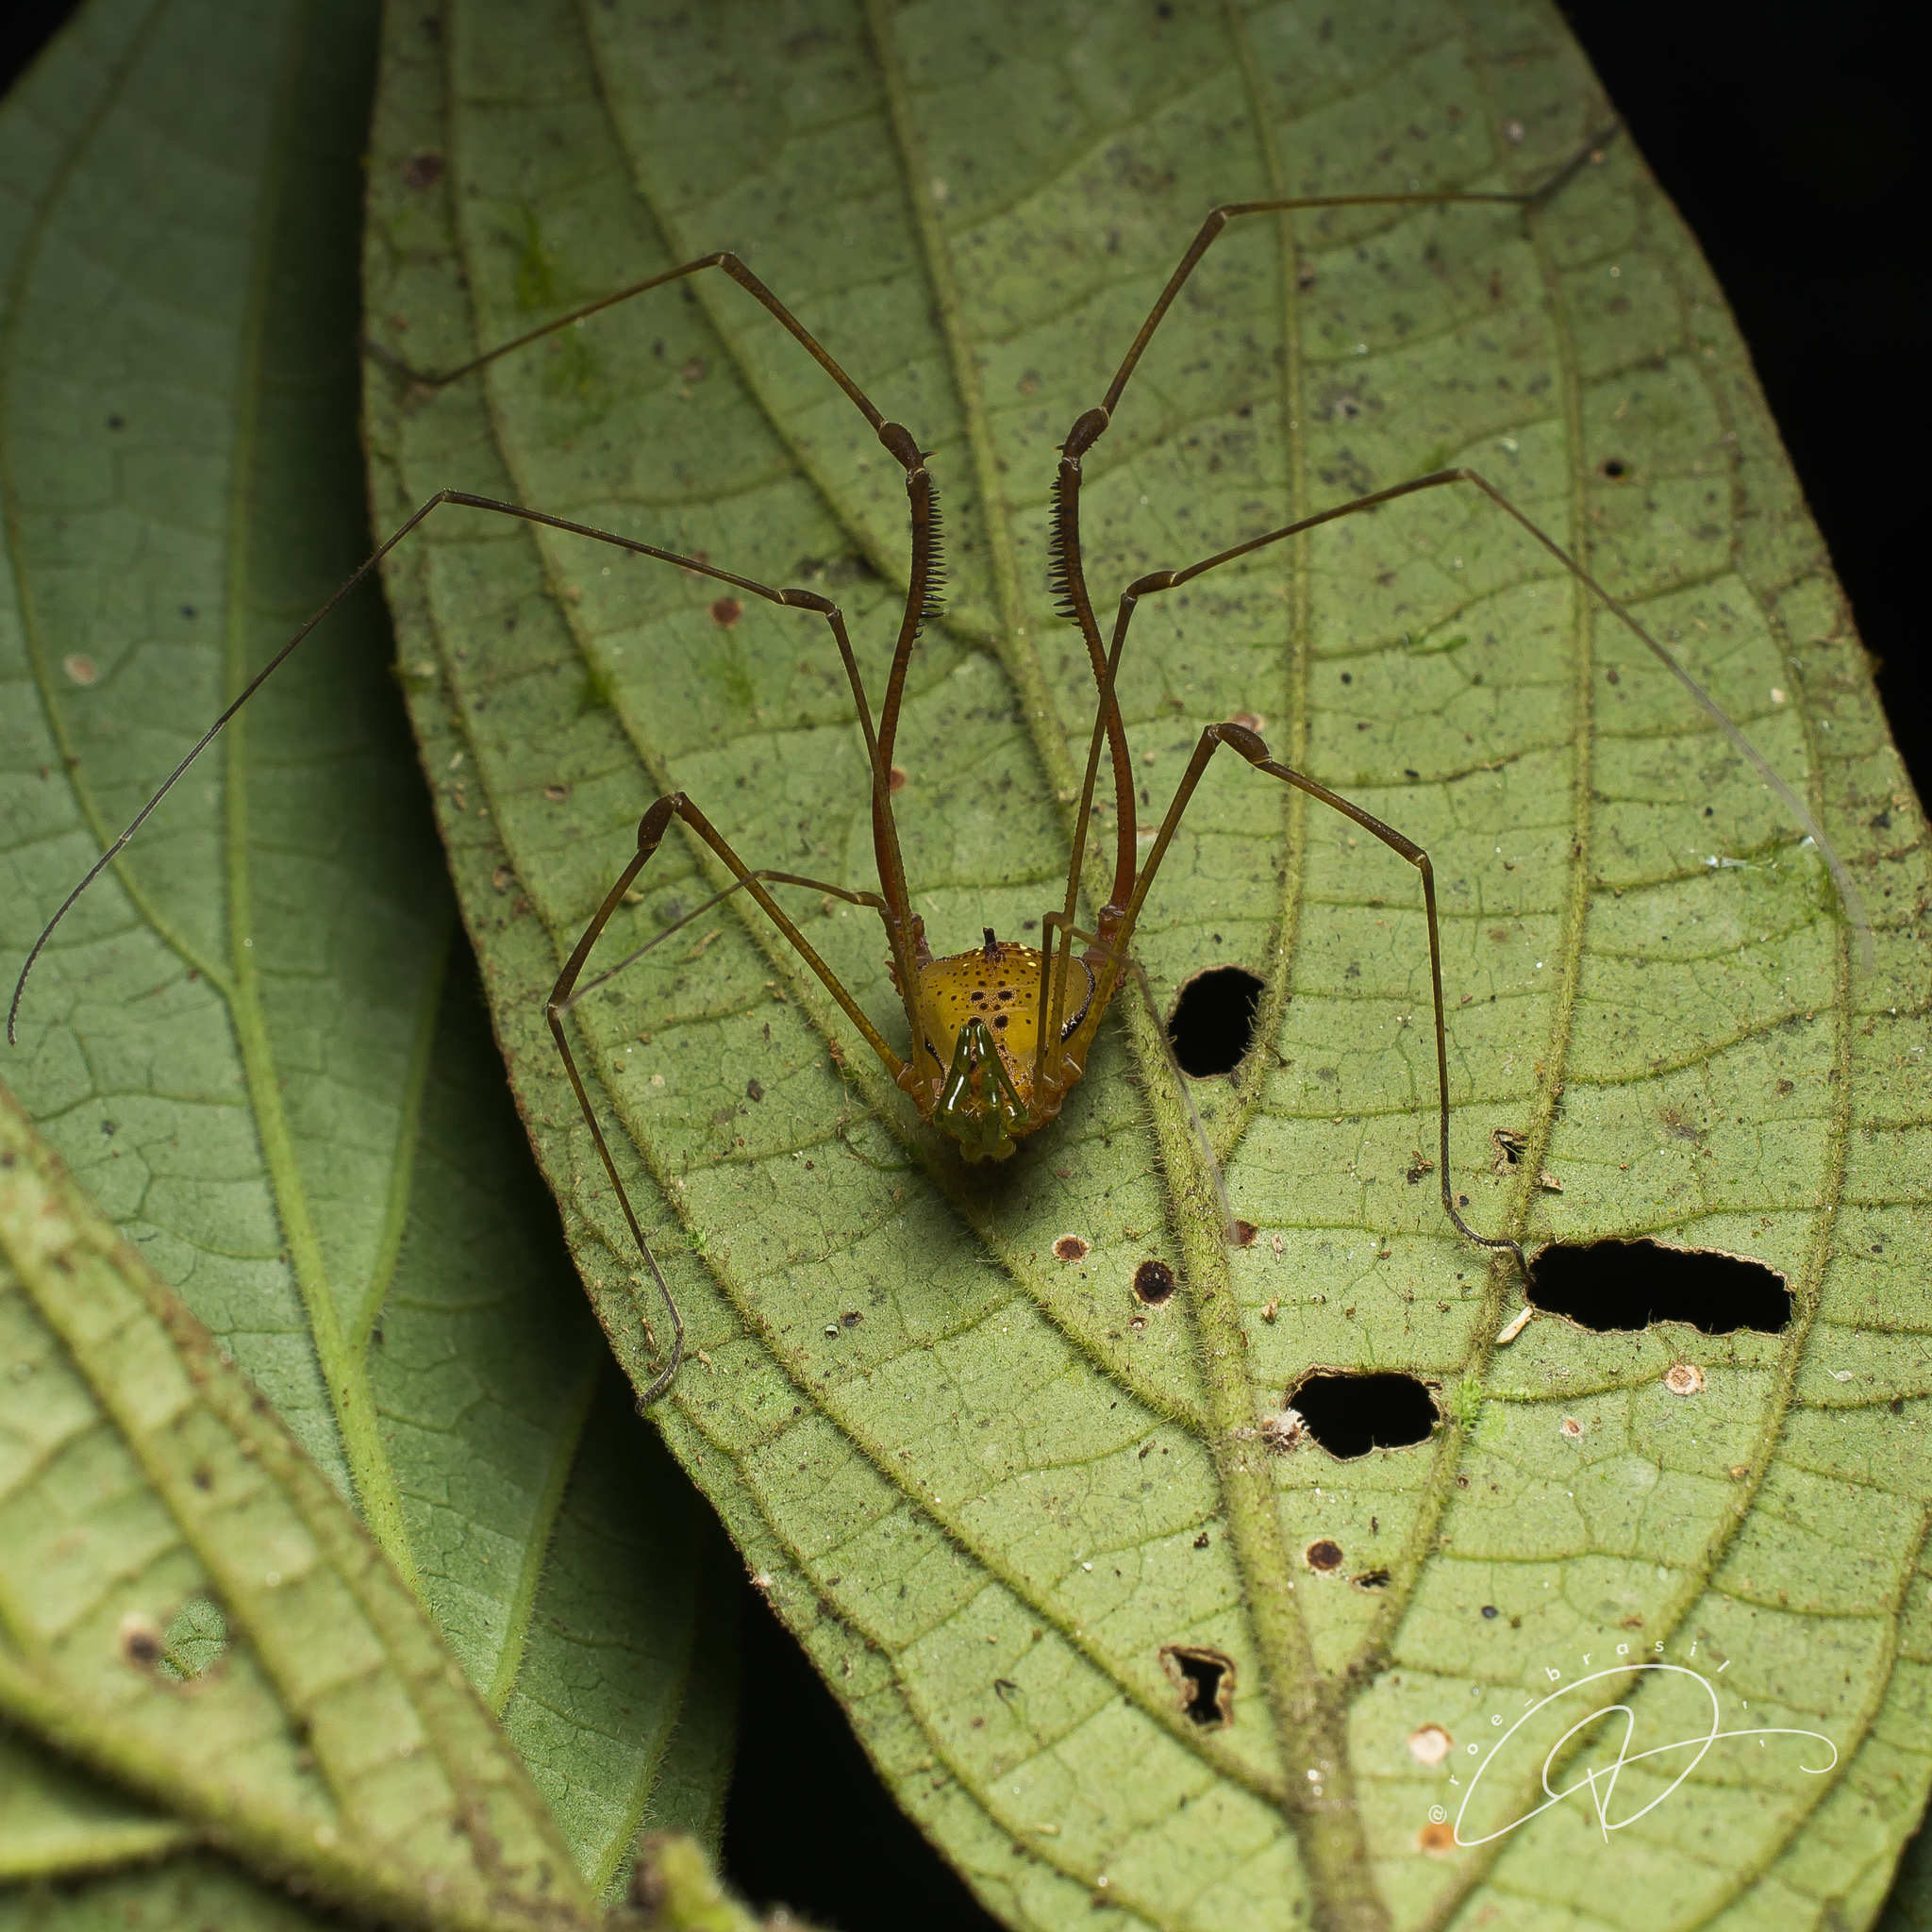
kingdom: Animalia
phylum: Arthropoda
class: Arachnida
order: Opiliones
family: Gonyleptidae
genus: Pristocnemus
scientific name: Pristocnemus pustulatus
